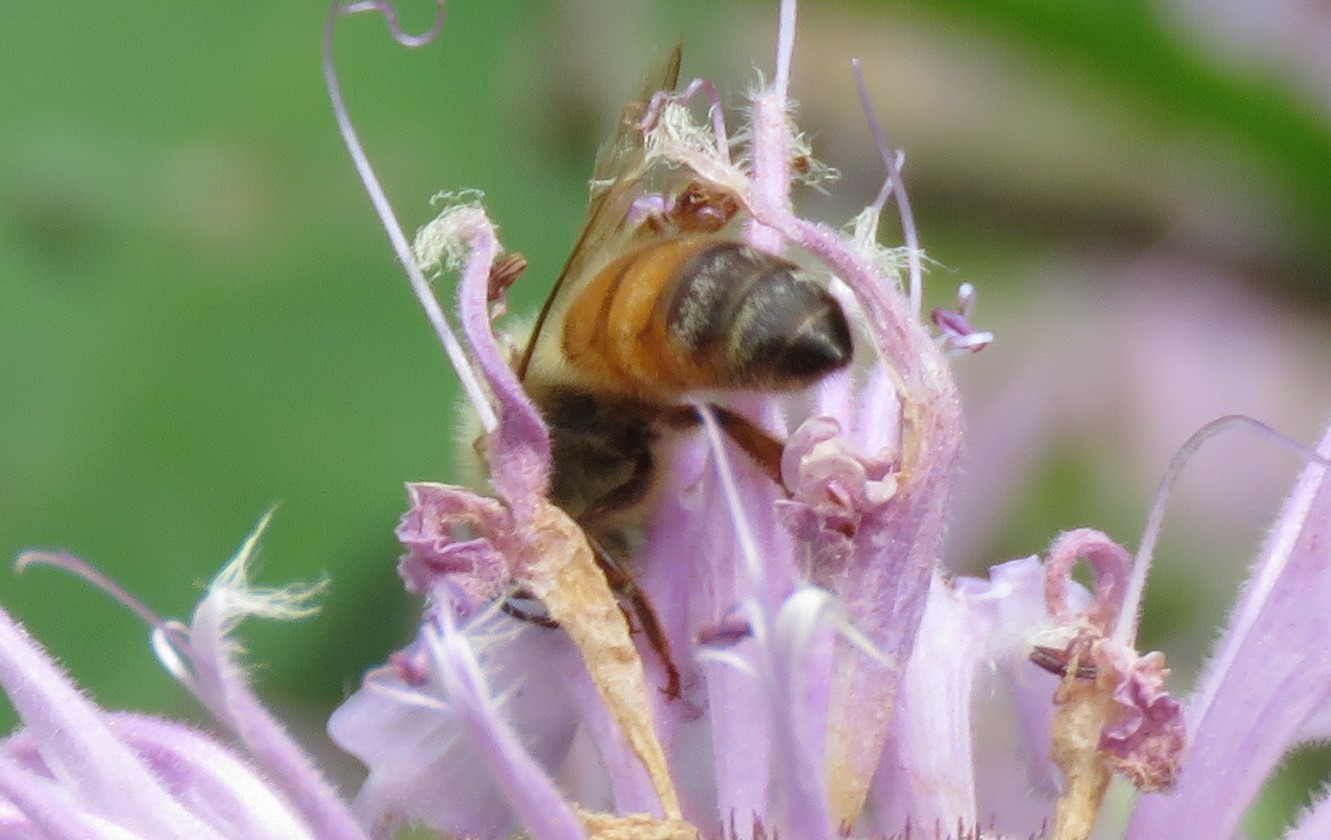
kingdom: Animalia
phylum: Arthropoda
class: Insecta
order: Hymenoptera
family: Apidae
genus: Apis
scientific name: Apis mellifera
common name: Honey bee
